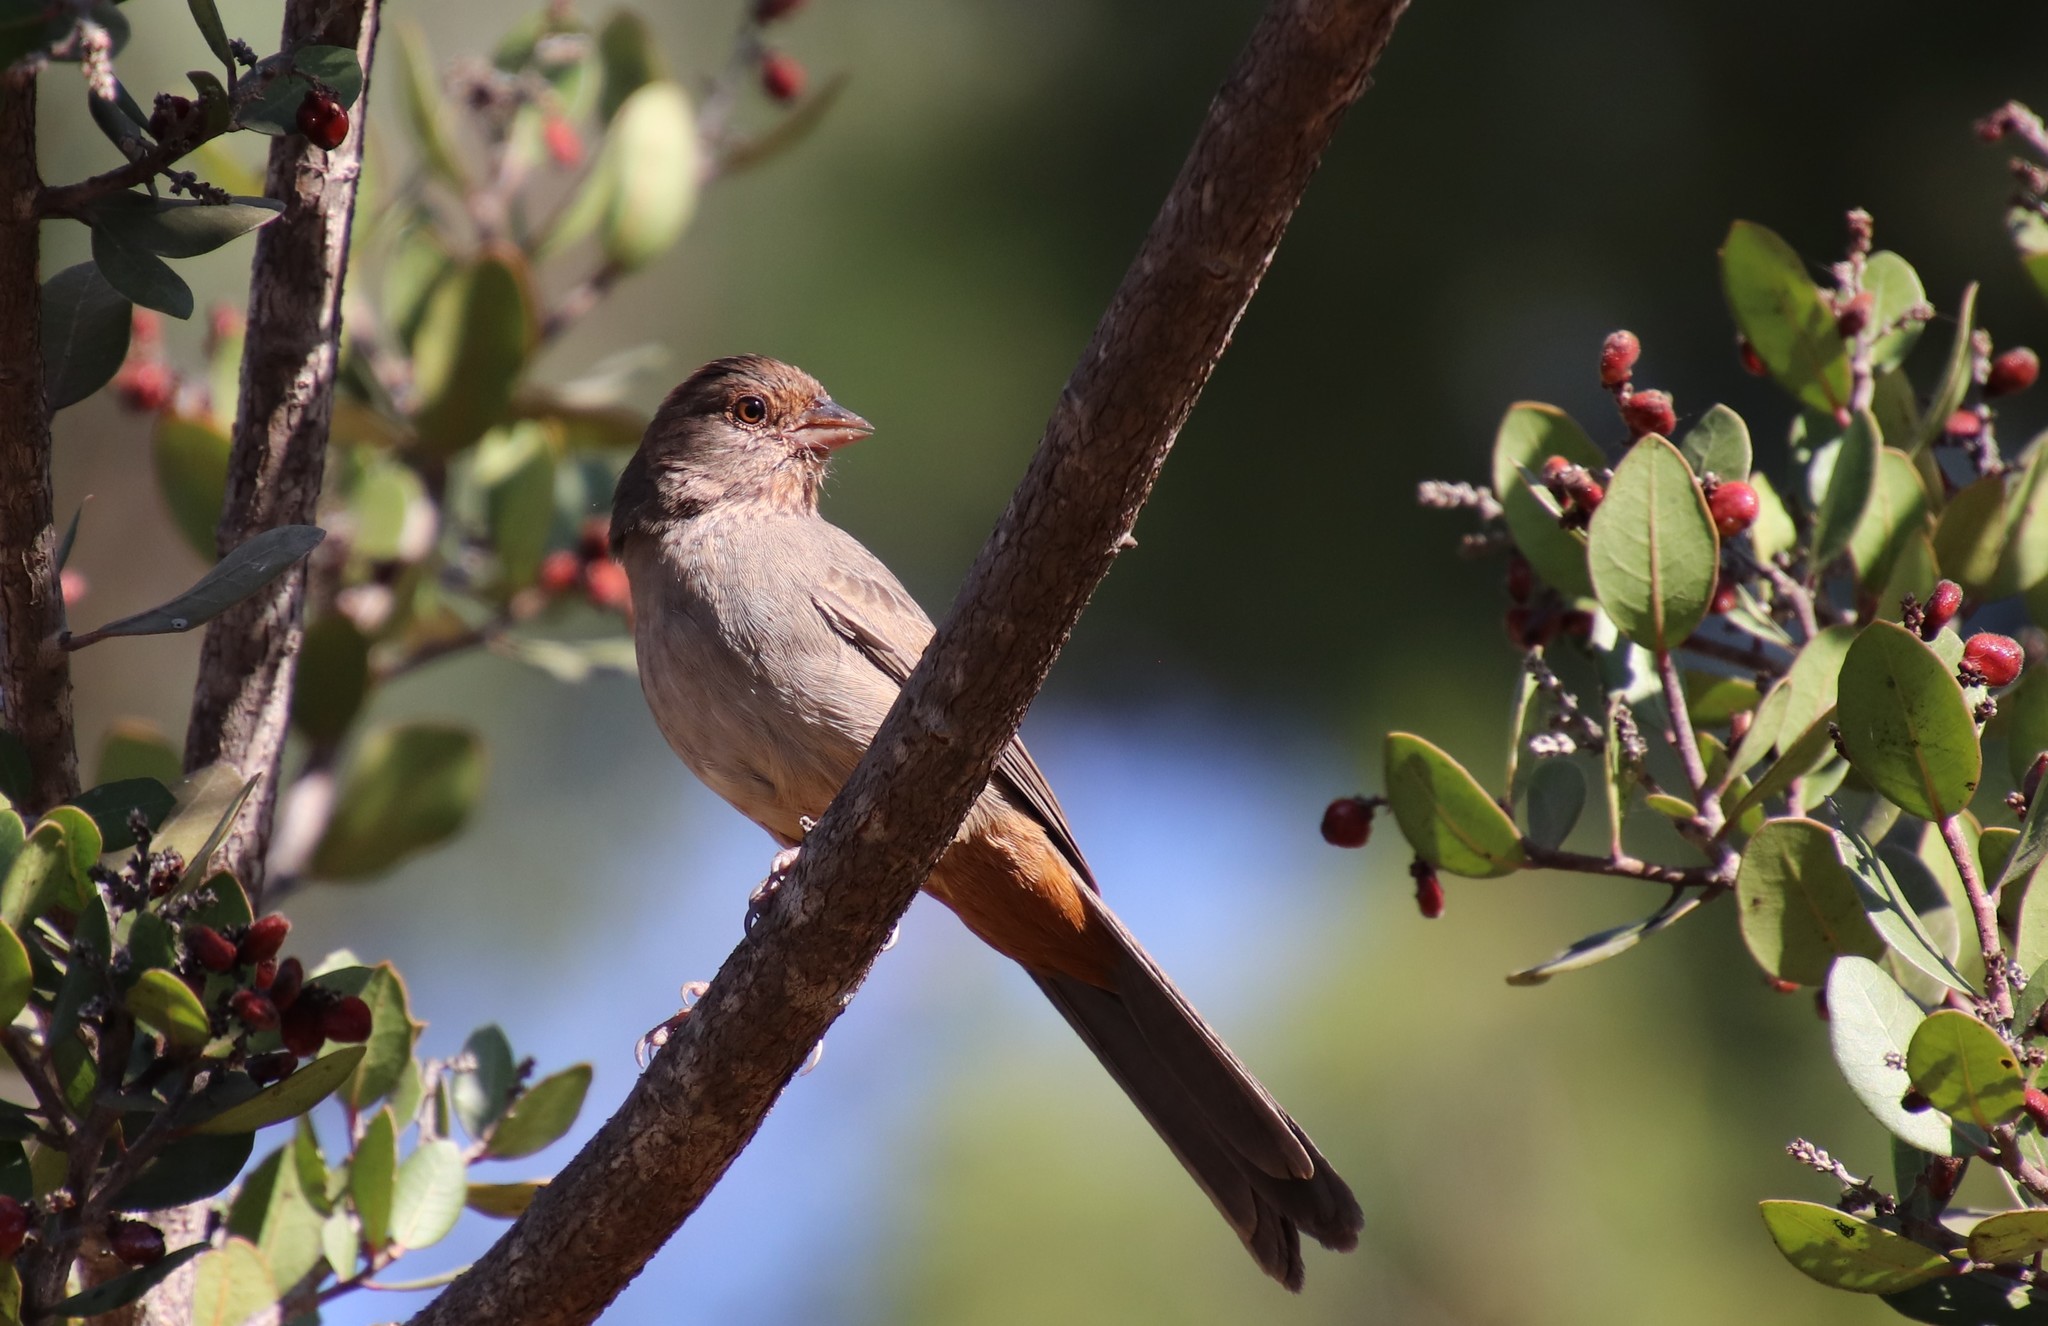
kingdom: Animalia
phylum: Chordata
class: Aves
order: Passeriformes
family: Passerellidae
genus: Melozone
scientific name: Melozone crissalis
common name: California towhee
